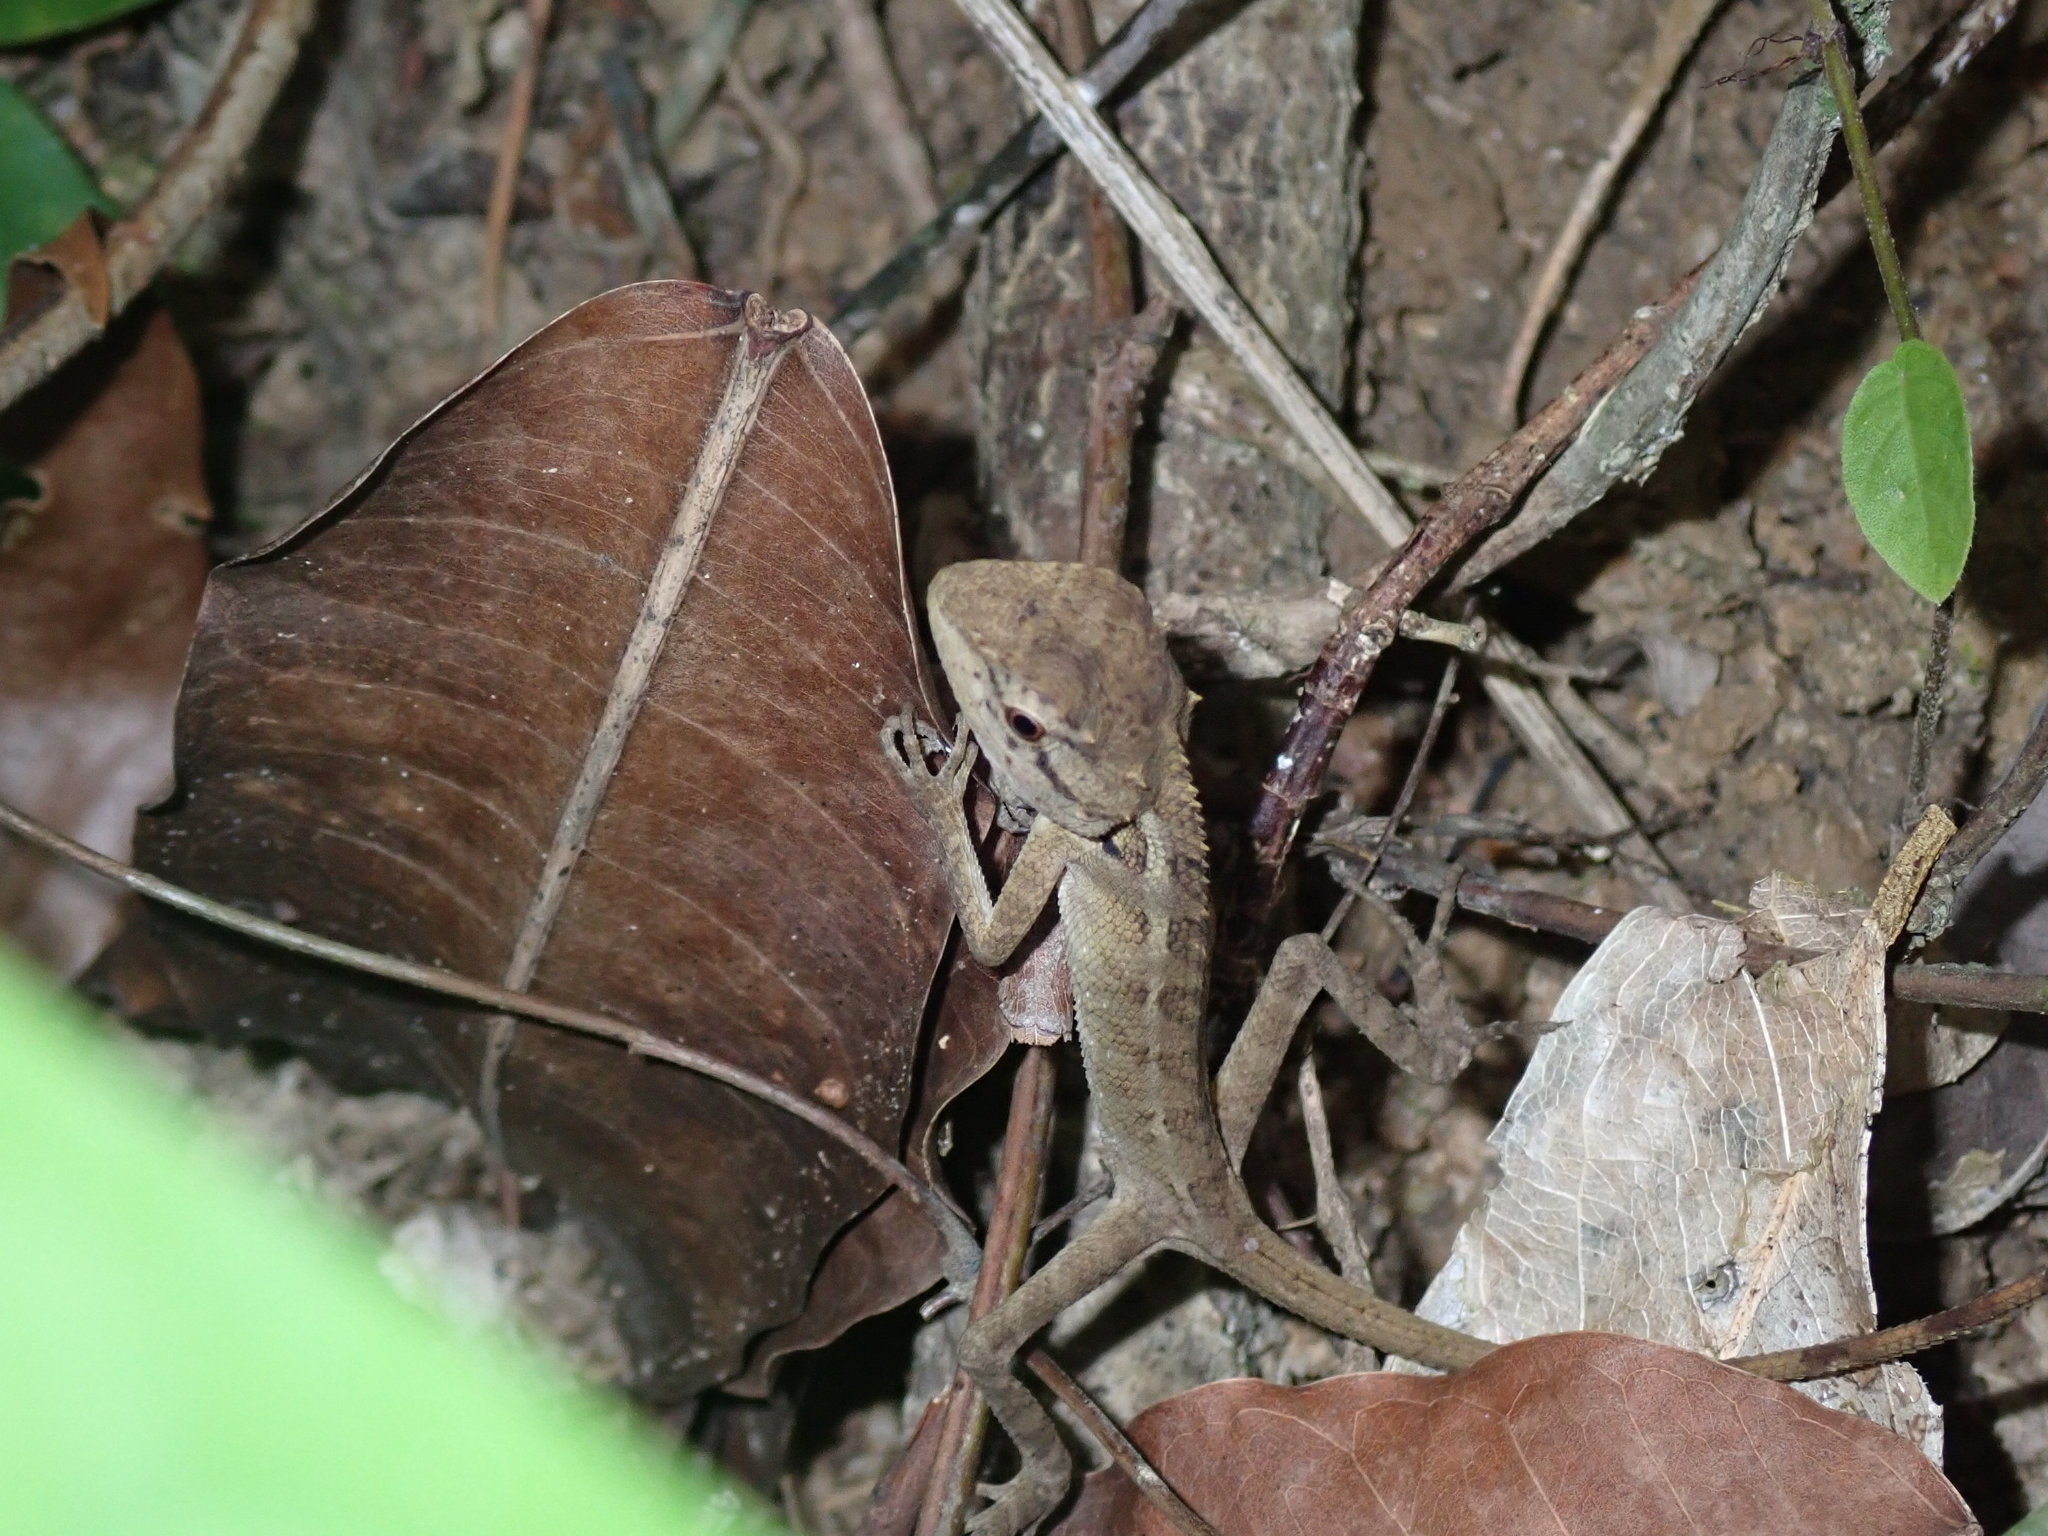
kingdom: Animalia
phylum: Chordata
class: Squamata
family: Agamidae
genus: Calotes
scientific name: Calotes emma
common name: Thailand bloodsucker
